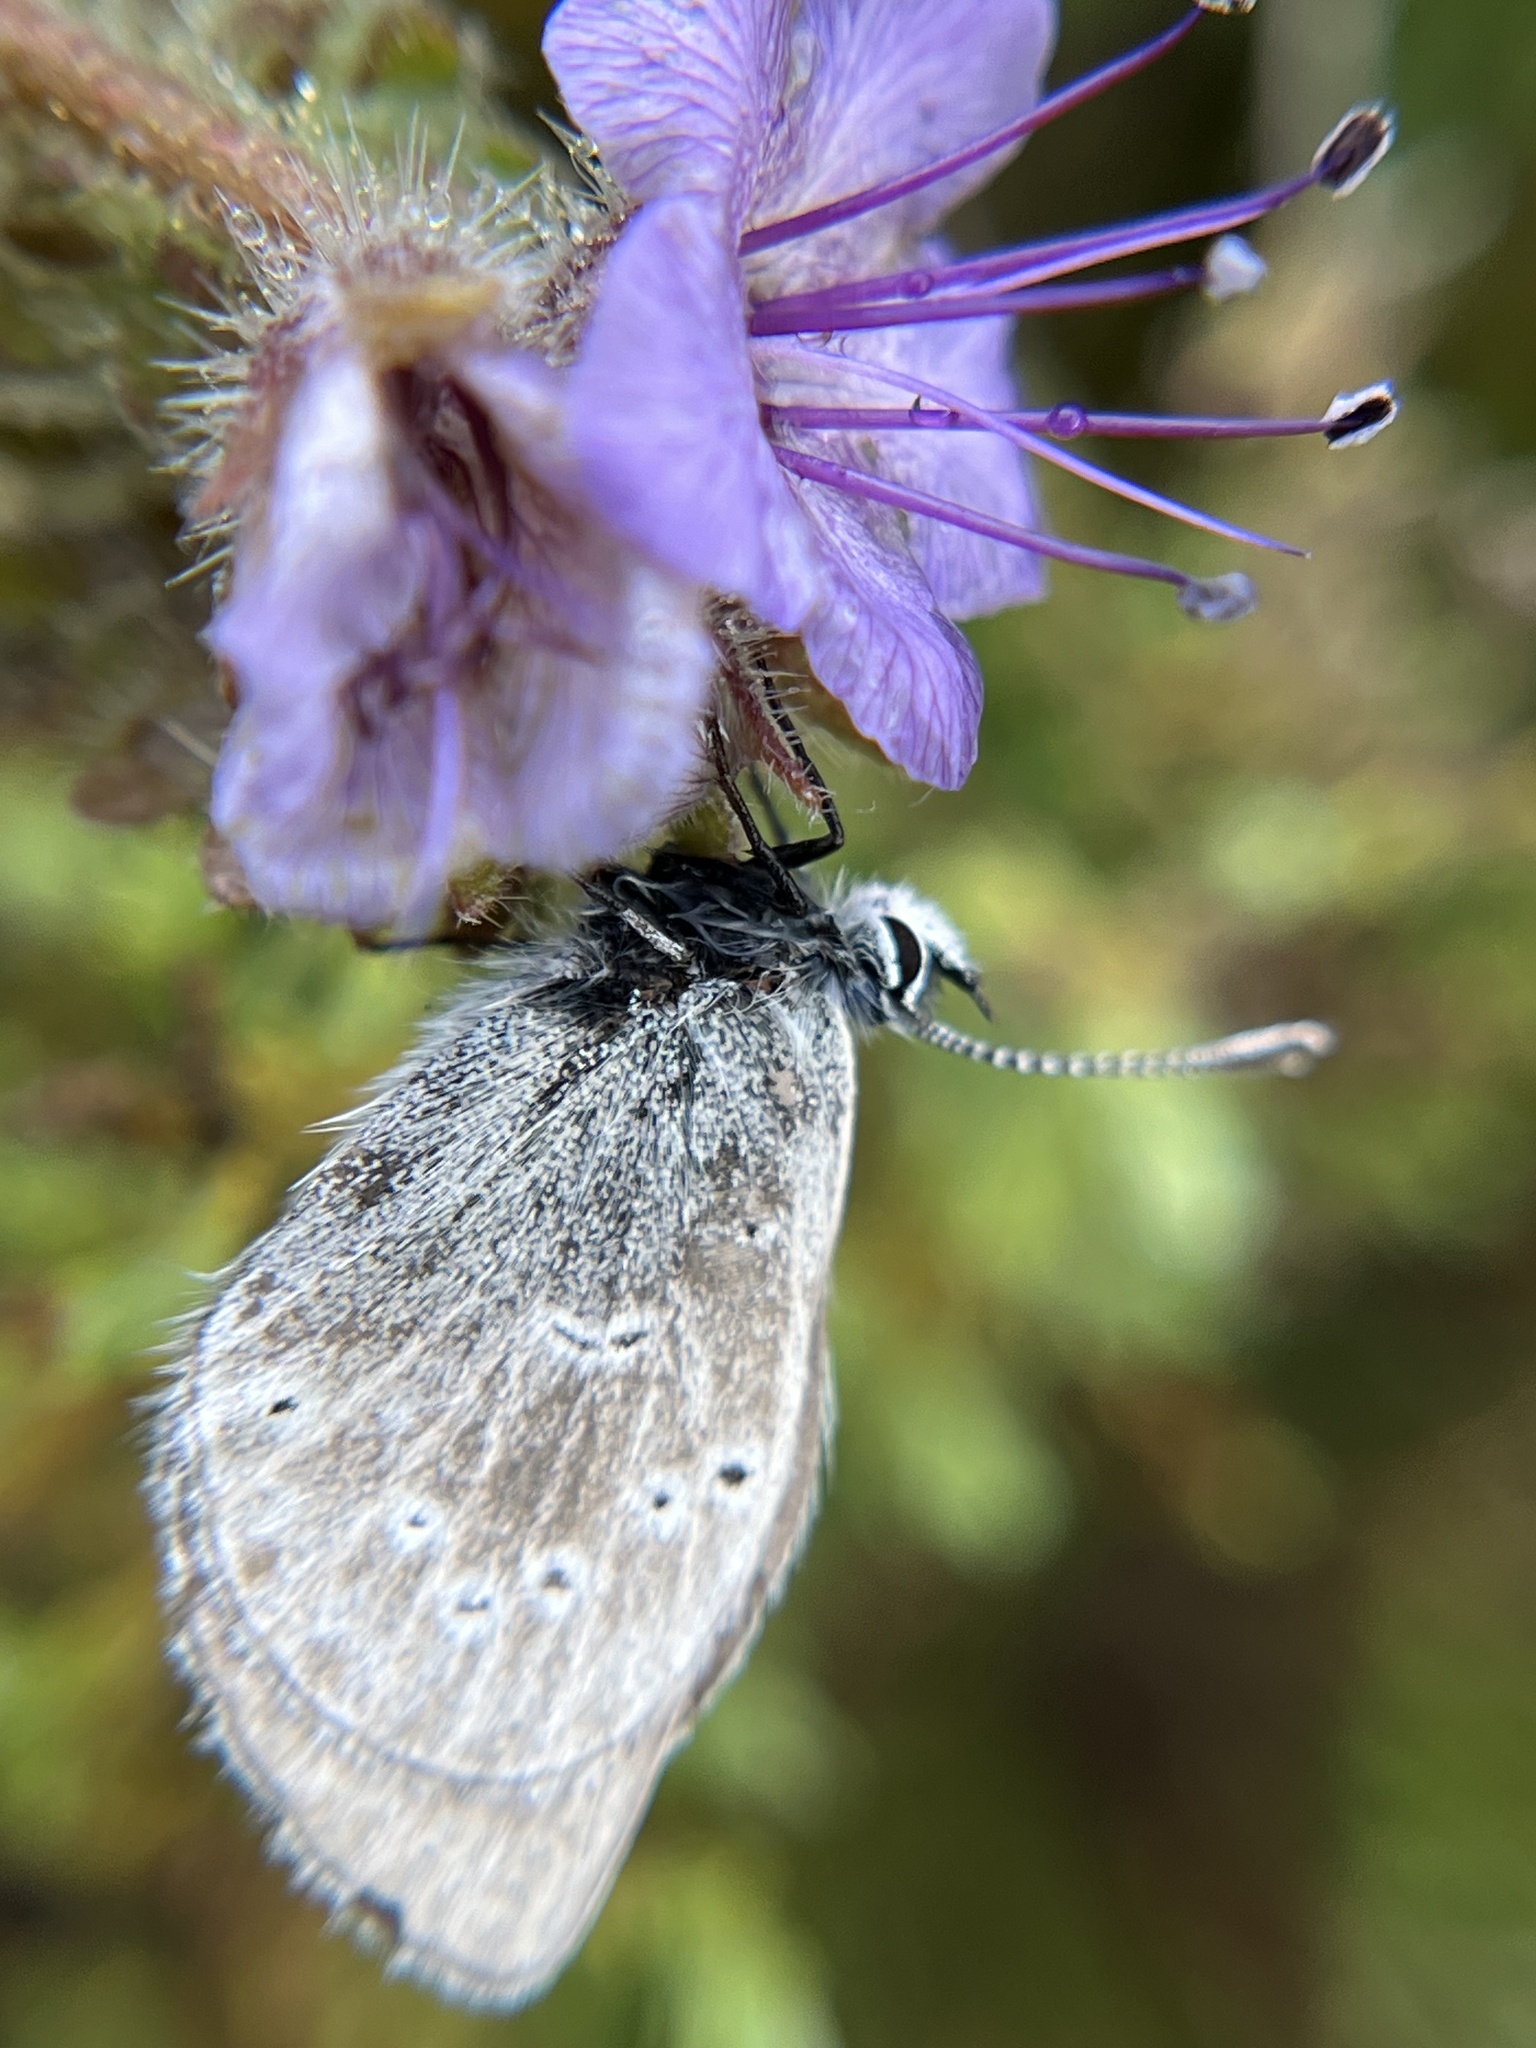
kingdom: Animalia
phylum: Arthropoda
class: Insecta
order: Lepidoptera
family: Lycaenidae
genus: Glaucopsyche
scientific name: Glaucopsyche lygdamus
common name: Silvery blue
